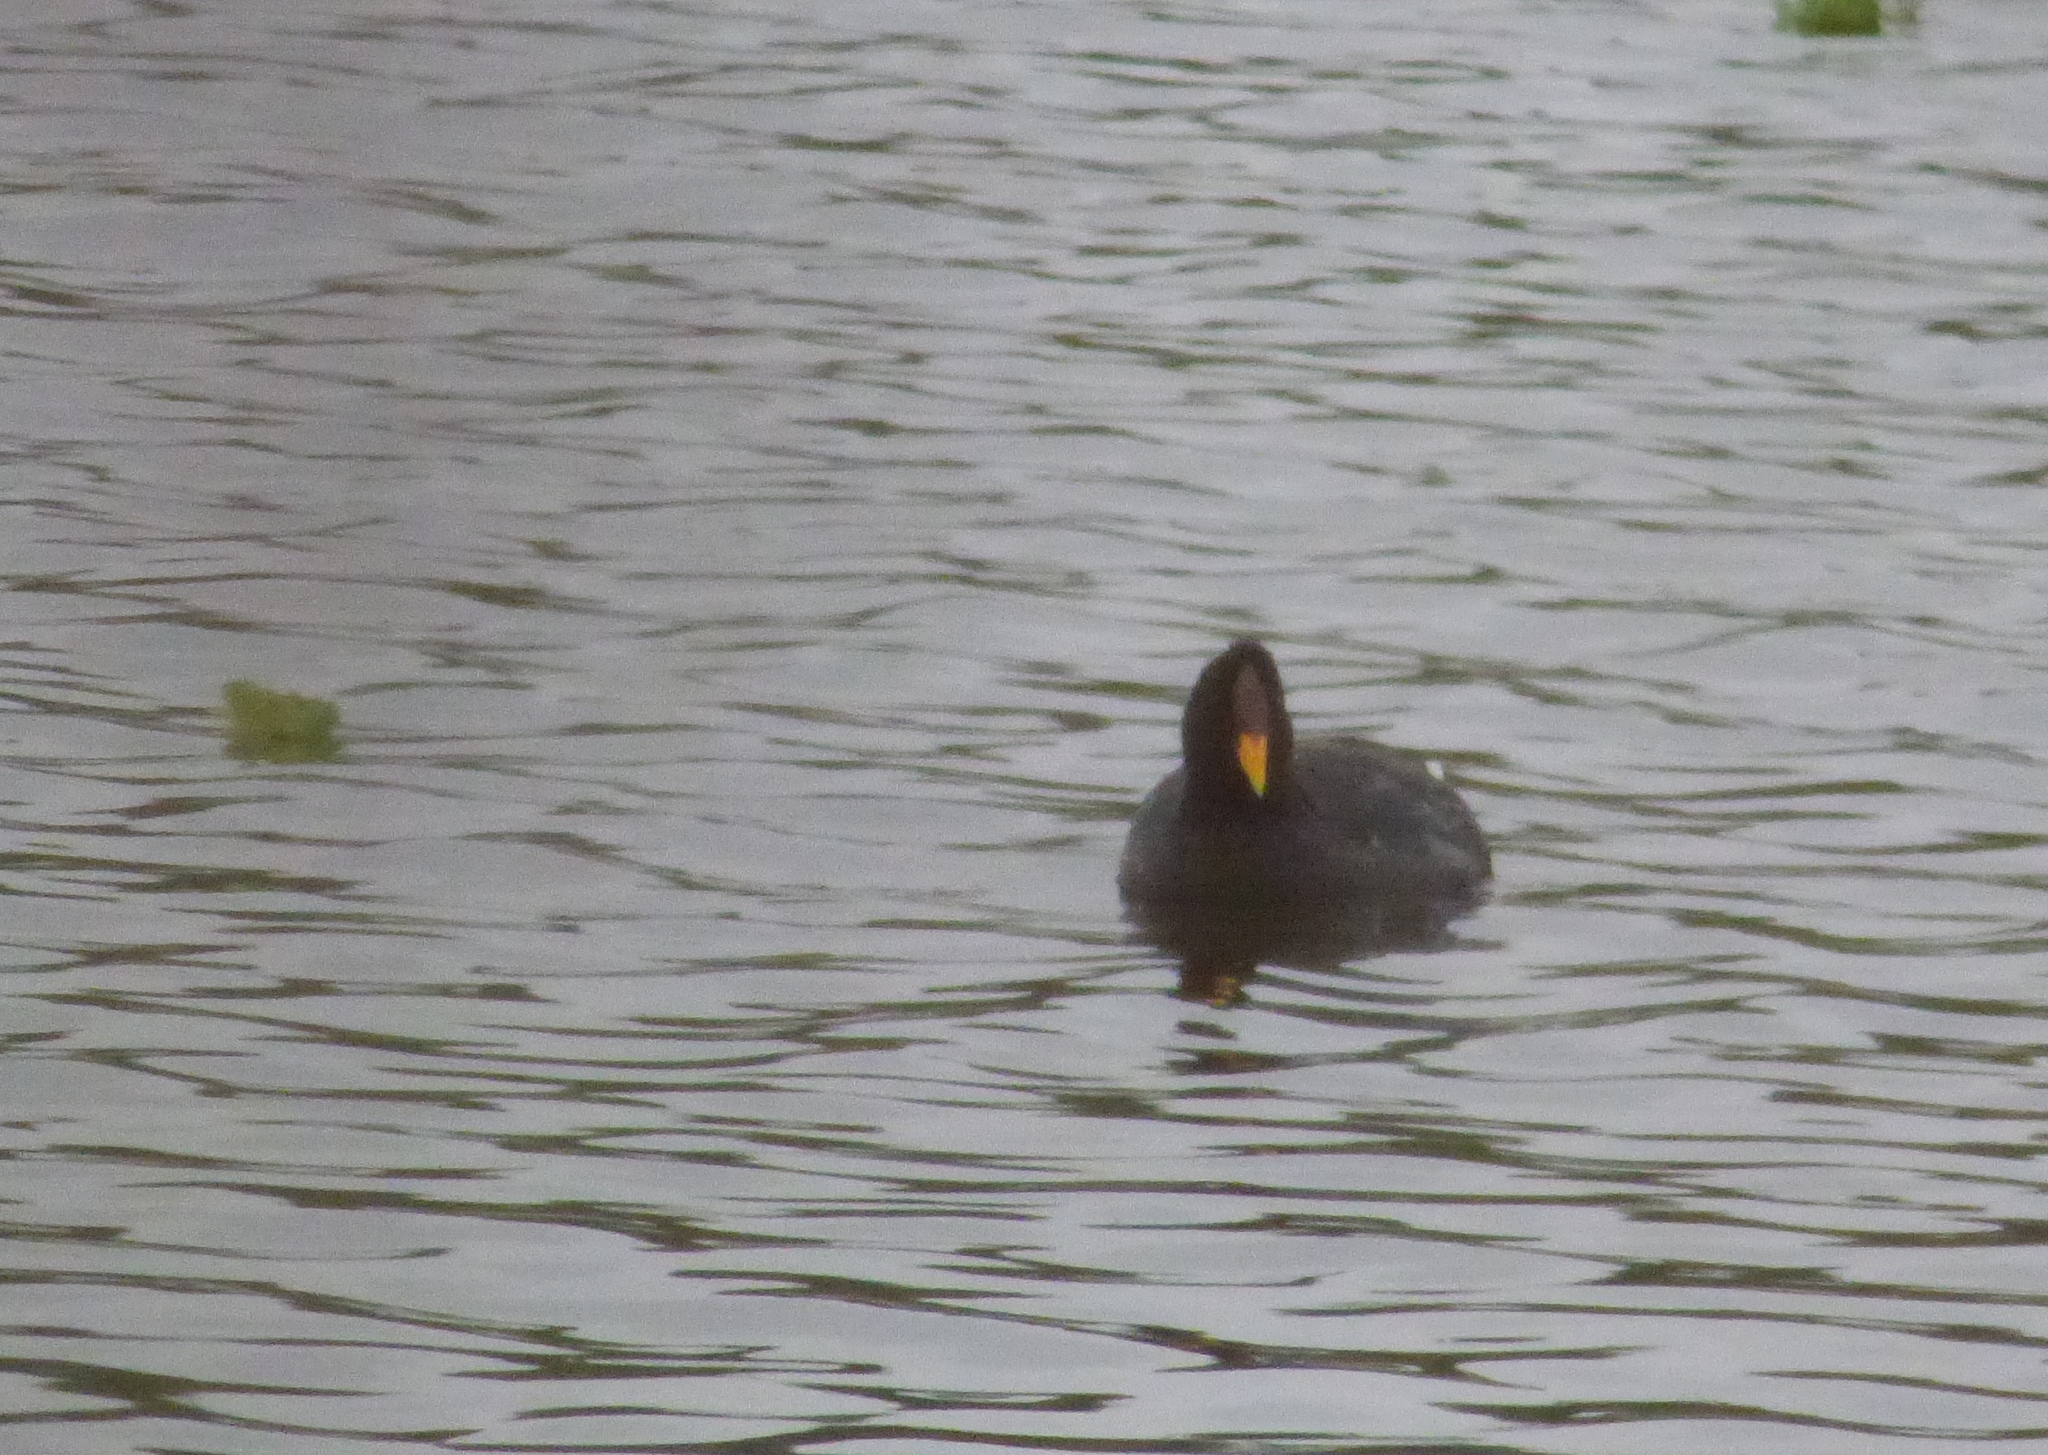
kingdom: Animalia
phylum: Chordata
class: Aves
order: Gruiformes
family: Rallidae
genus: Fulica
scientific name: Fulica rufifrons
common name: Red-fronted coot
